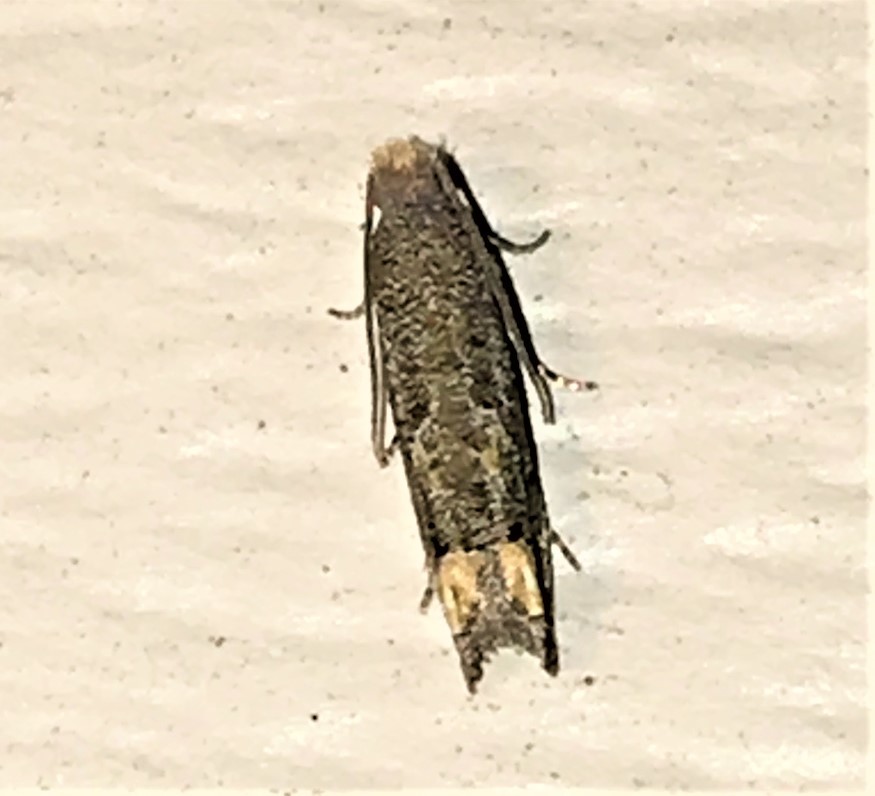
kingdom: Animalia
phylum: Arthropoda
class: Insecta
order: Lepidoptera
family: Tortricidae
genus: Epiblema
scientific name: Epiblema strenuana
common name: Ragweed borer moth
